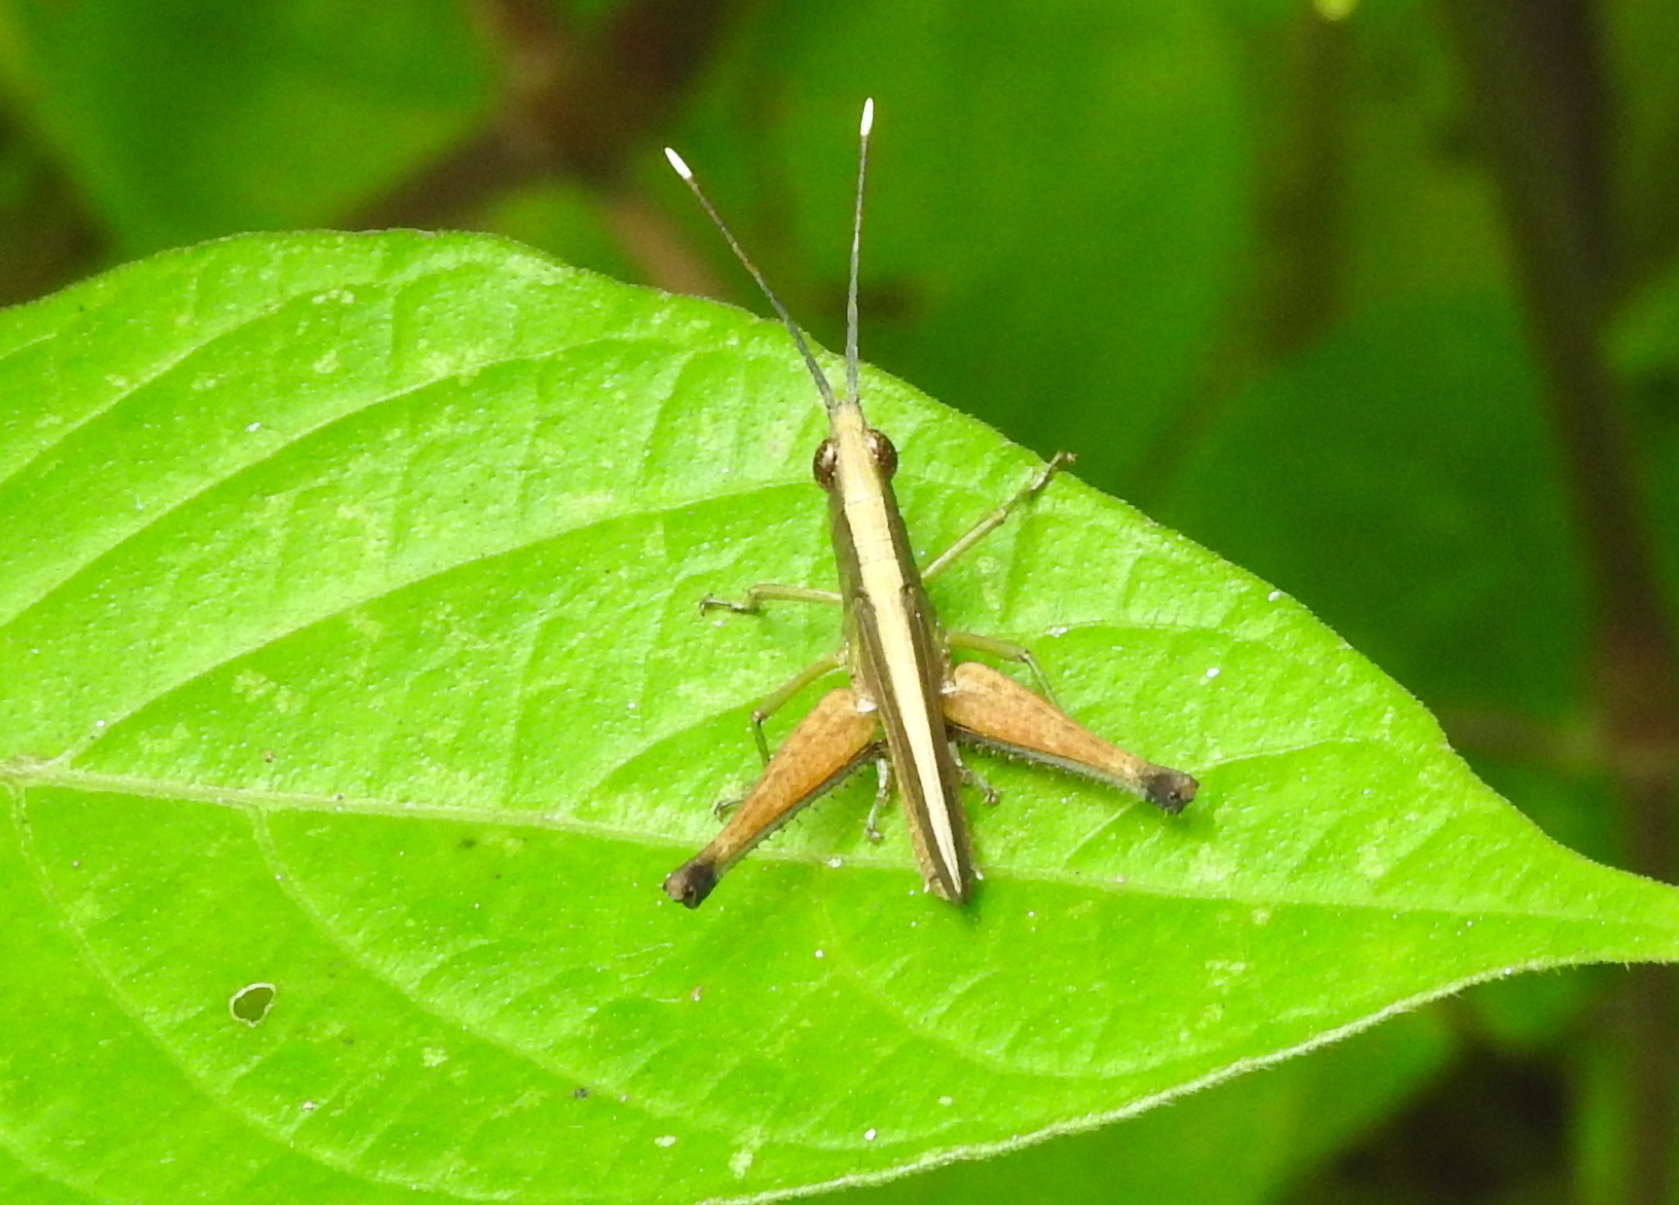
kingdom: Animalia
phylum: Arthropoda
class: Insecta
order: Orthoptera
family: Acrididae
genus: Phlaeoba
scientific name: Phlaeoba antennata
